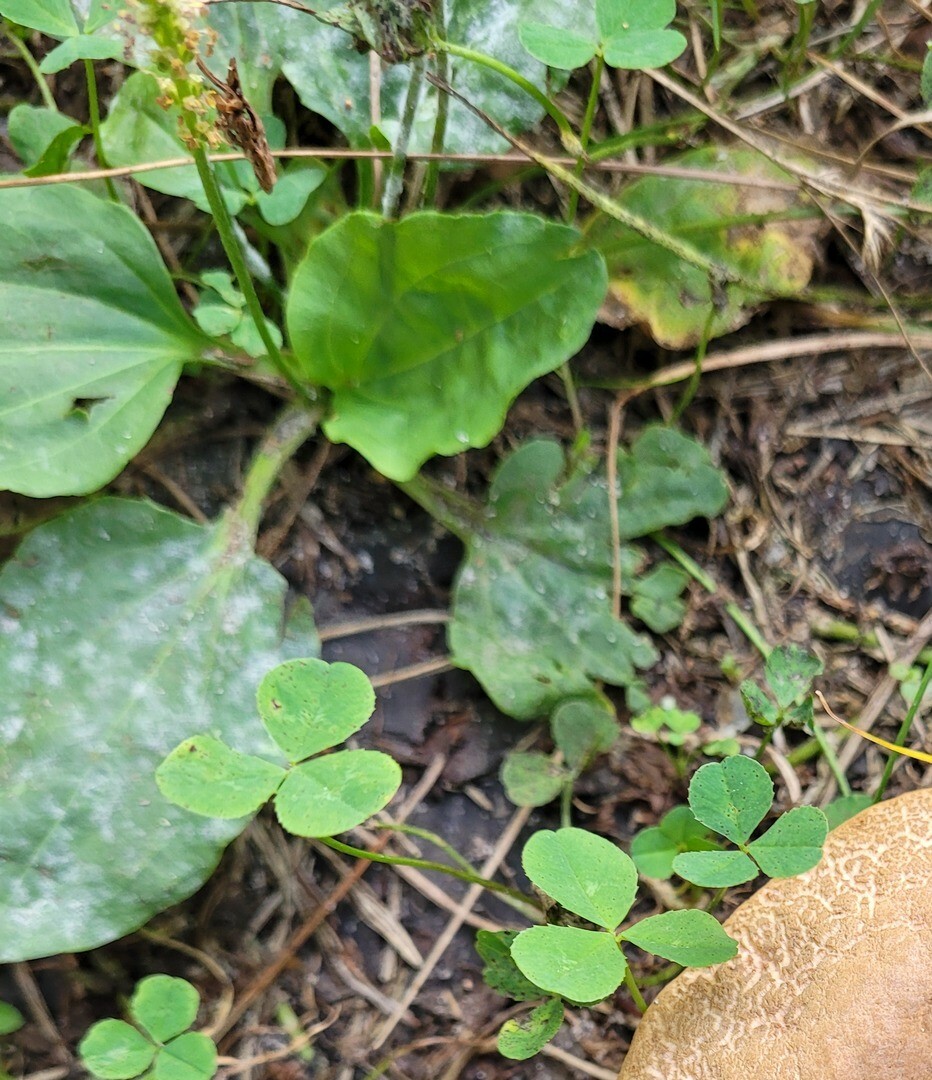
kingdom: Plantae
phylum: Tracheophyta
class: Magnoliopsida
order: Lamiales
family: Plantaginaceae
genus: Plantago
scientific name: Plantago major
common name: Common plantain
